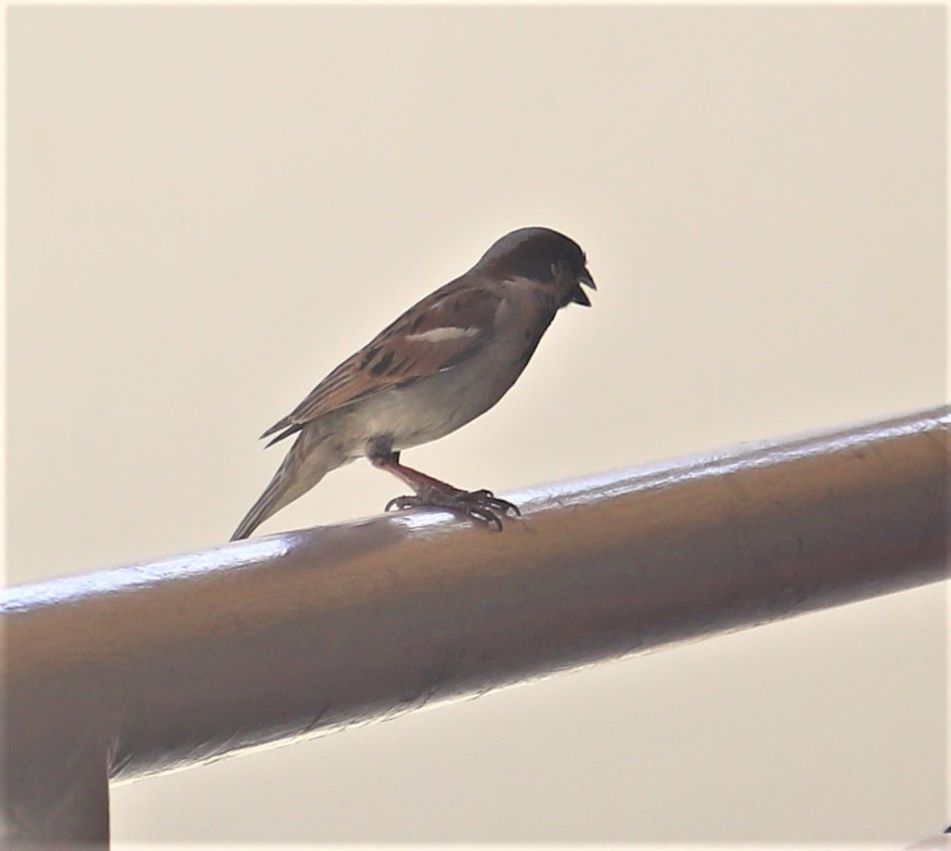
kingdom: Animalia
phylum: Chordata
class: Aves
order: Passeriformes
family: Passeridae
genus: Passer
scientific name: Passer domesticus
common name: House sparrow
